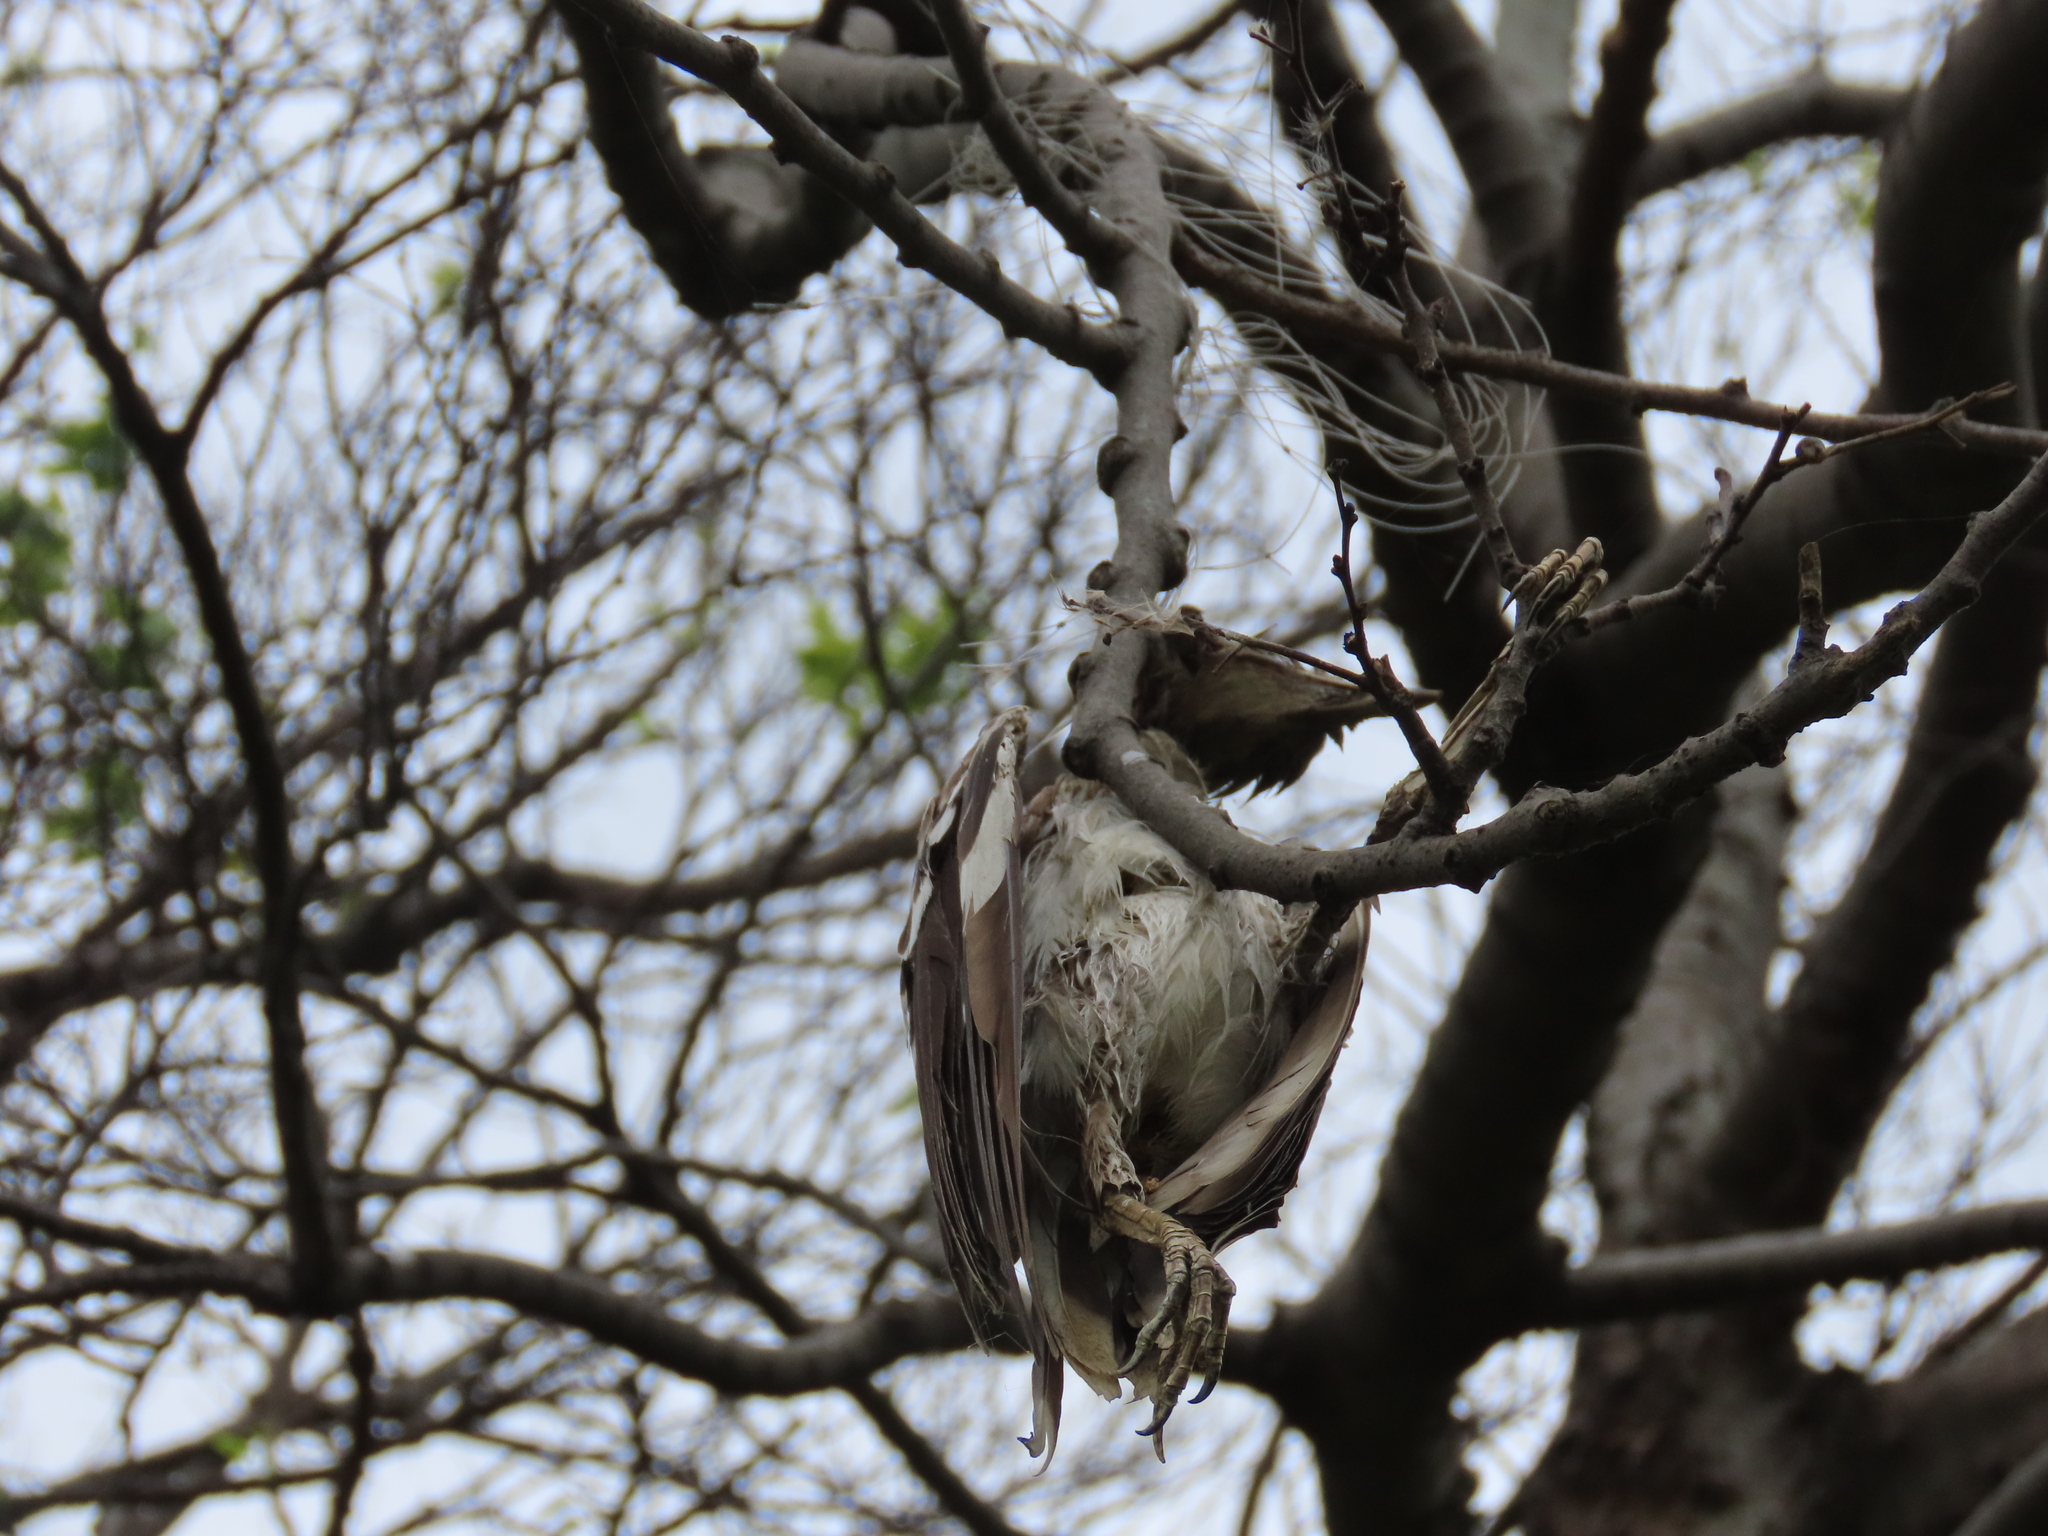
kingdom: Animalia
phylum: Chordata
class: Aves
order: Passeriformes
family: Sturnidae
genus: Gracupica
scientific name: Gracupica nigricollis
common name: Black-collared starling
